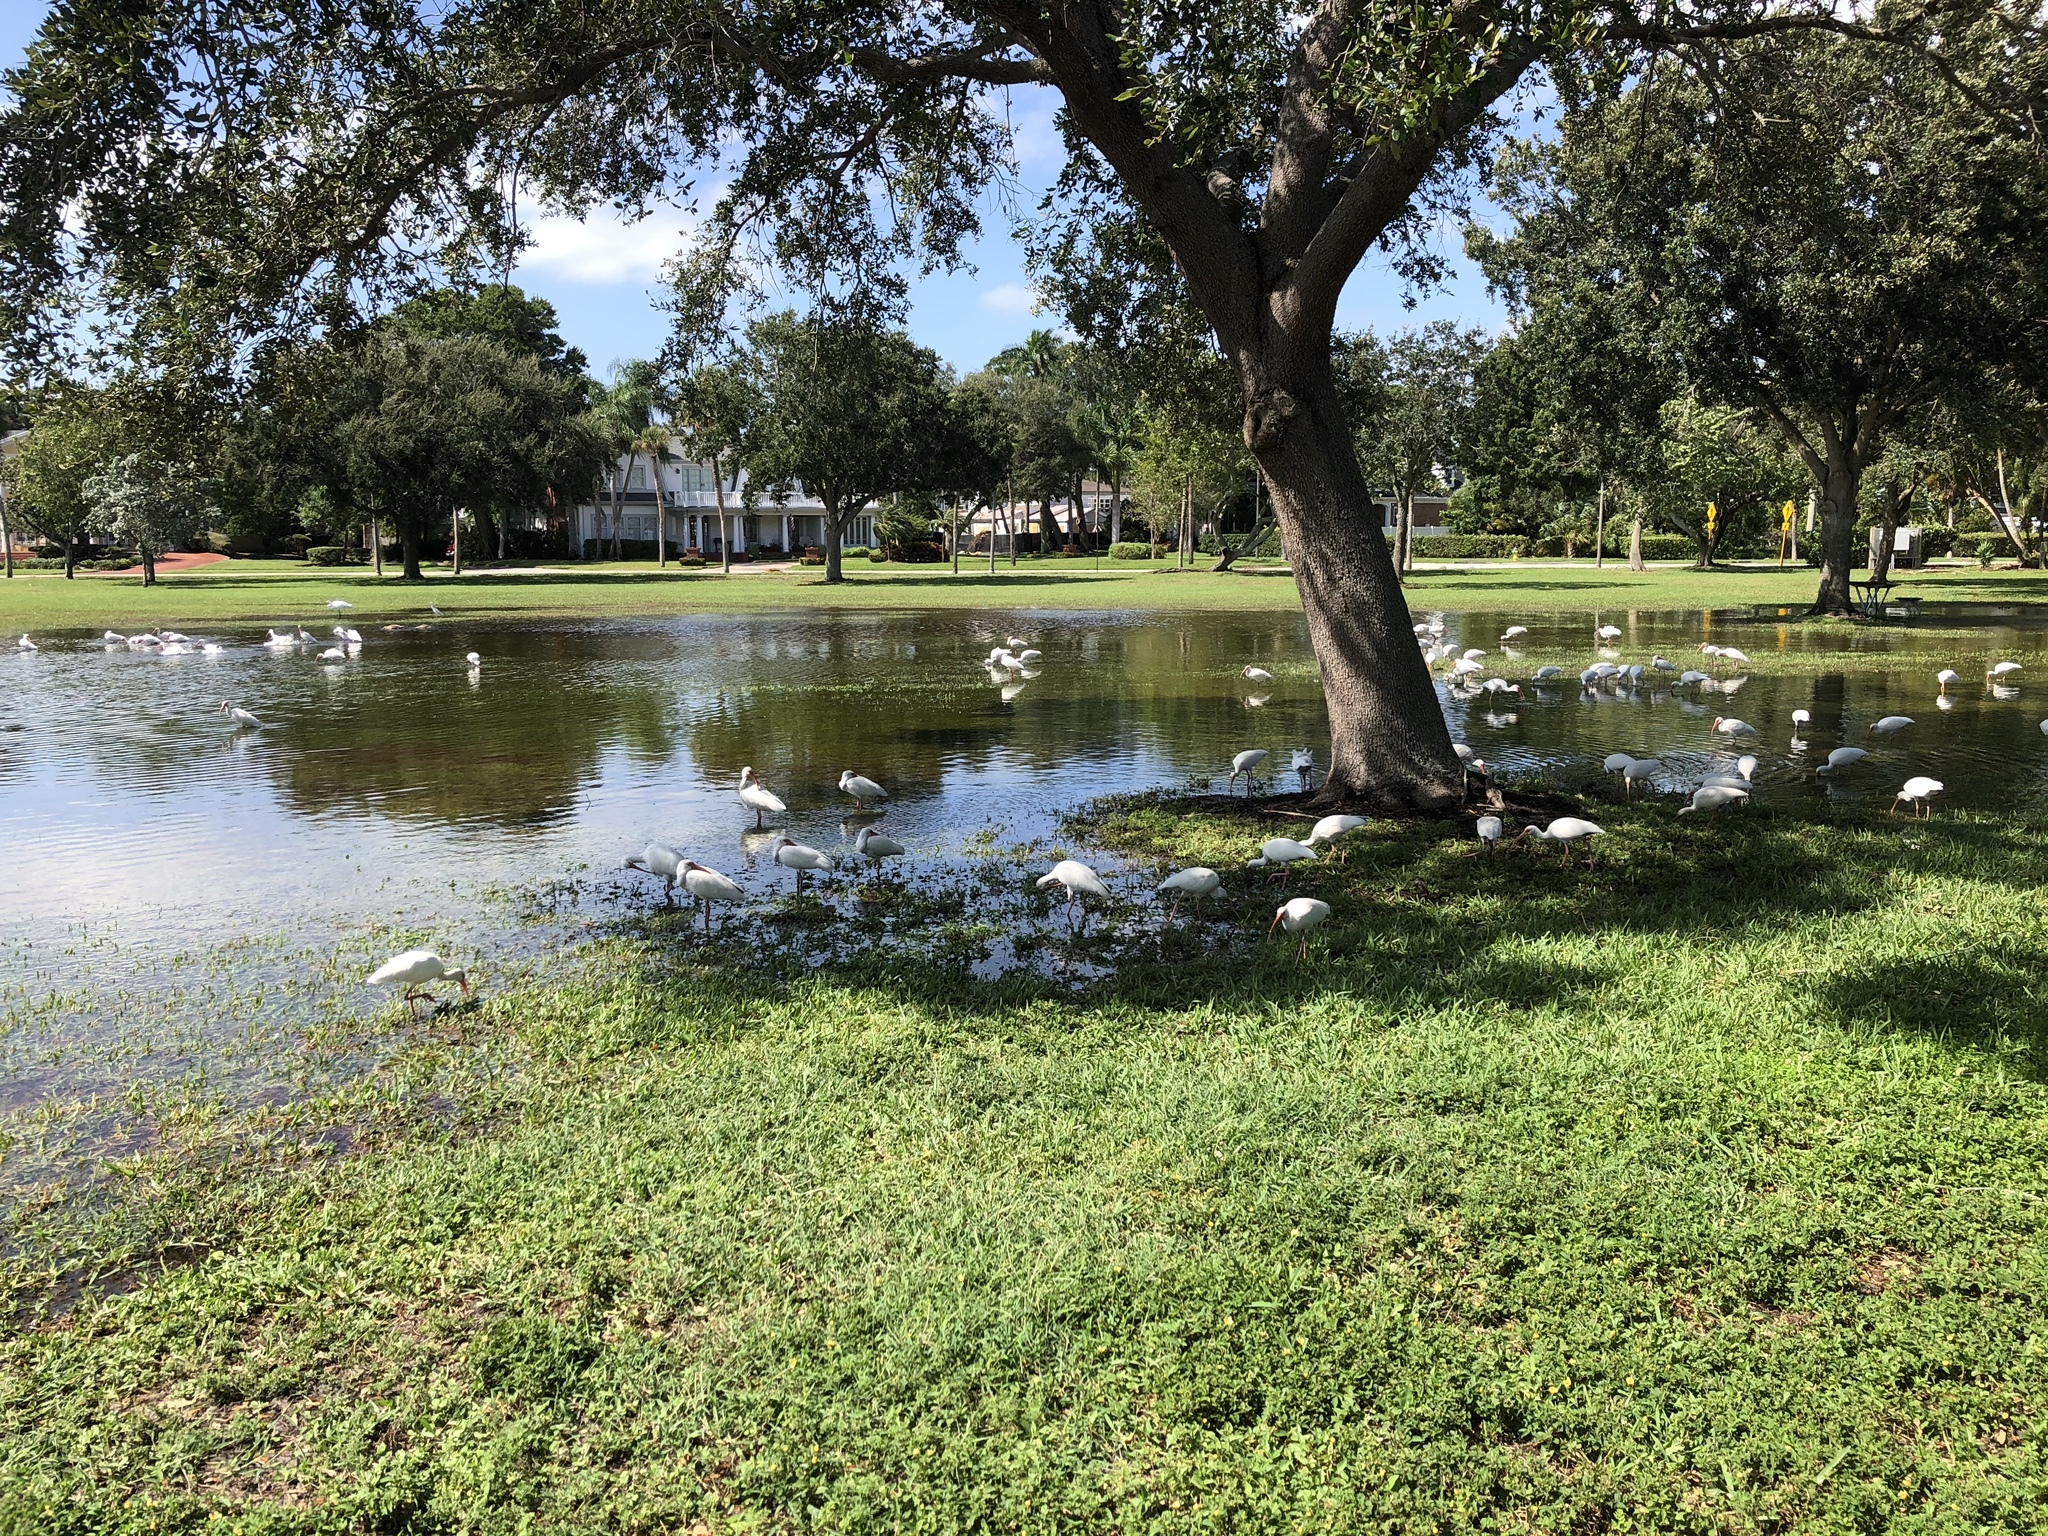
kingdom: Animalia
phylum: Chordata
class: Aves
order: Pelecaniformes
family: Threskiornithidae
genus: Eudocimus
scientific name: Eudocimus albus
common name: White ibis
